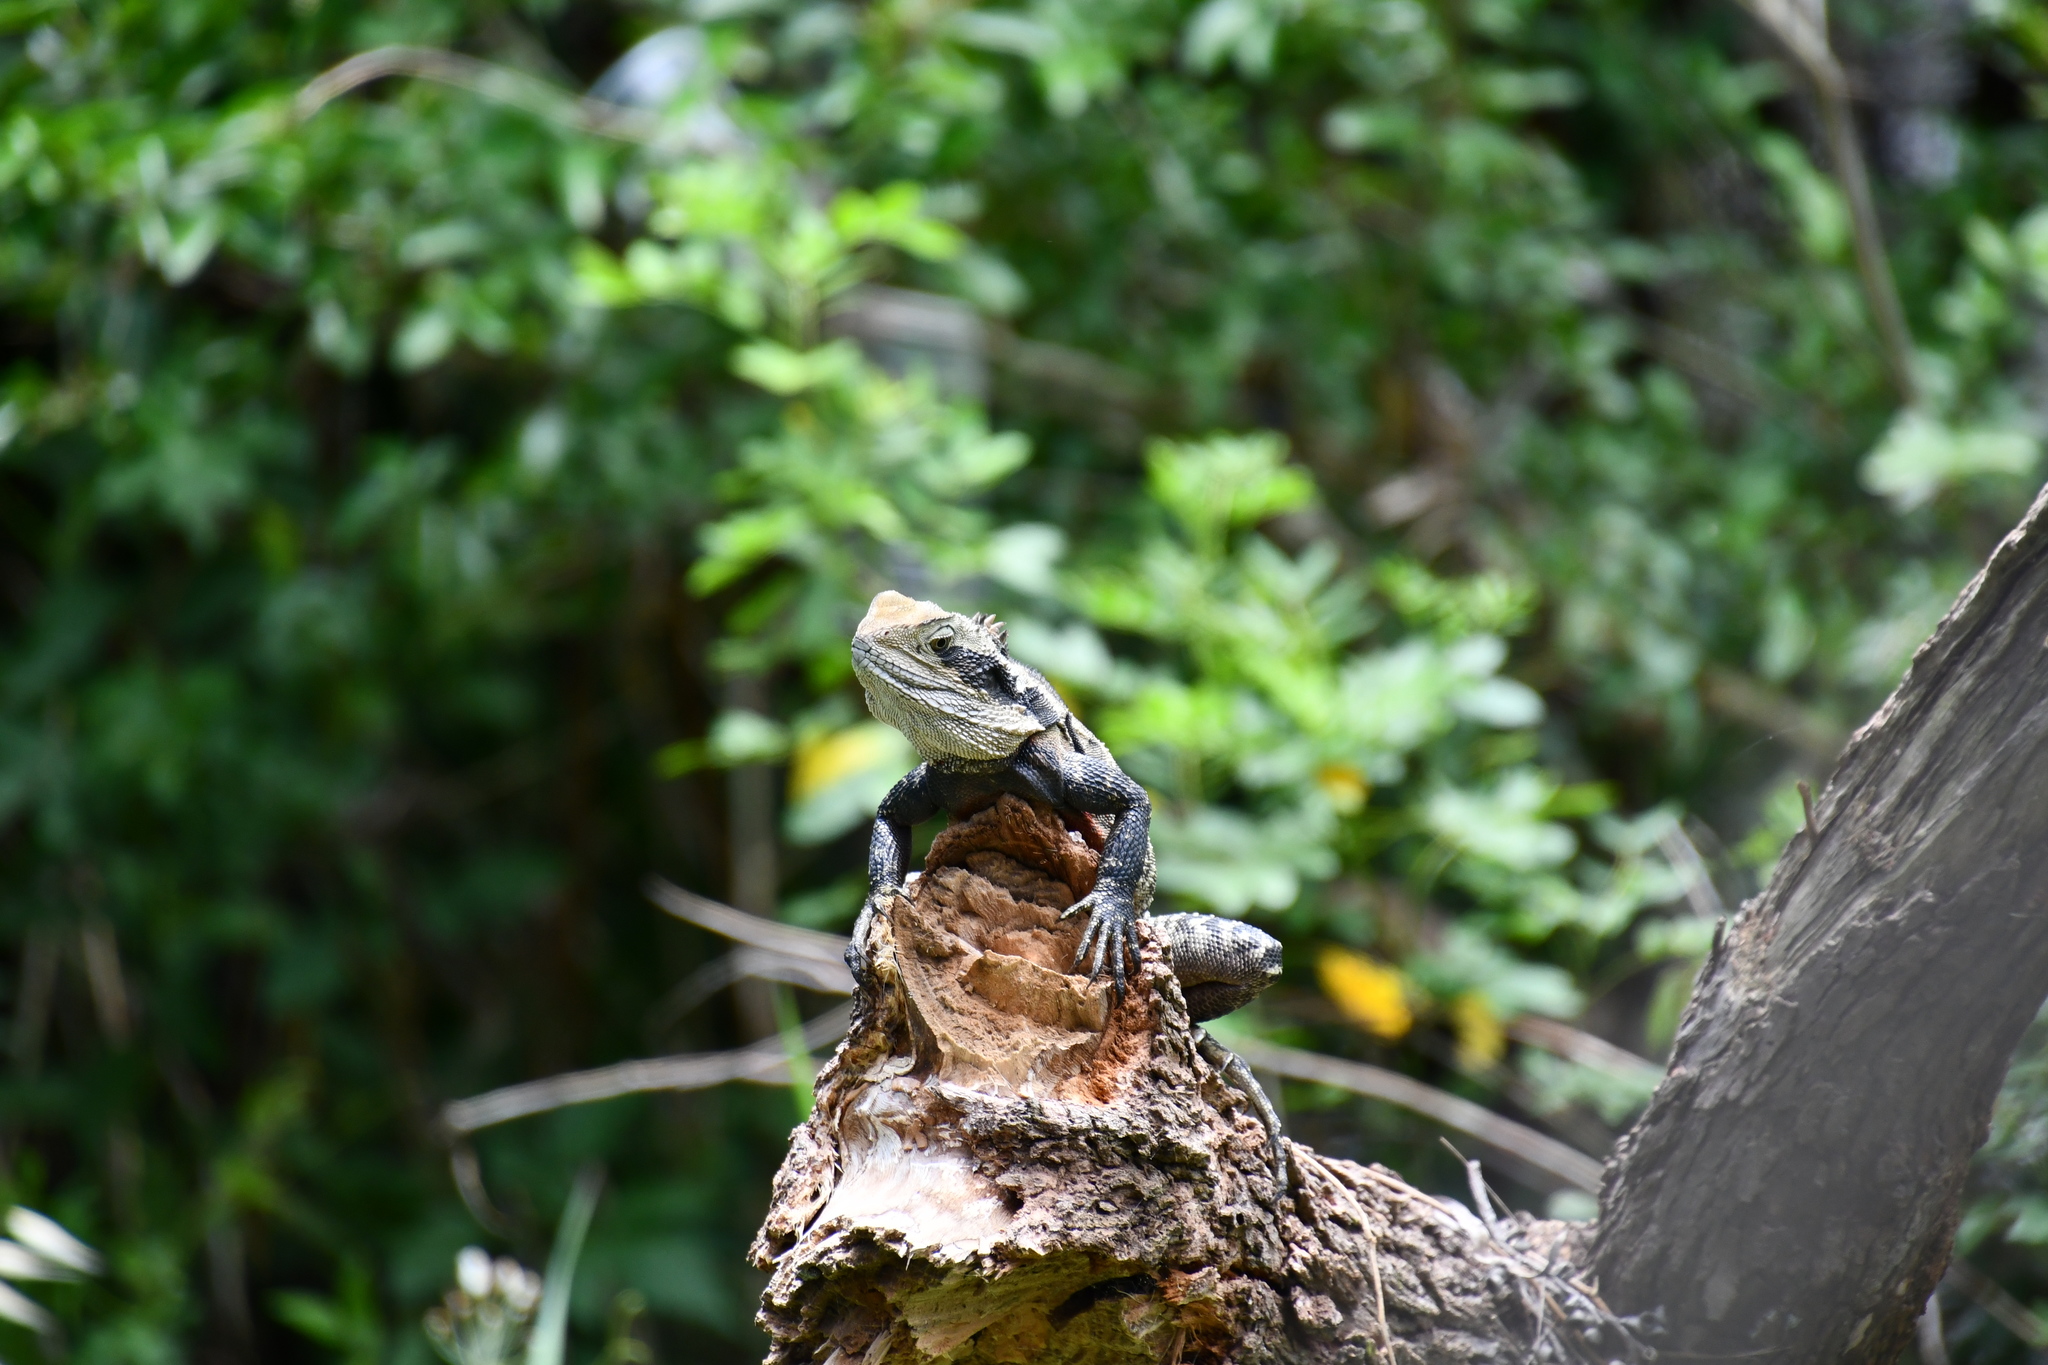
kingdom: Animalia
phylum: Chordata
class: Squamata
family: Agamidae
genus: Intellagama
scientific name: Intellagama lesueurii
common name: Eastern water dragon
